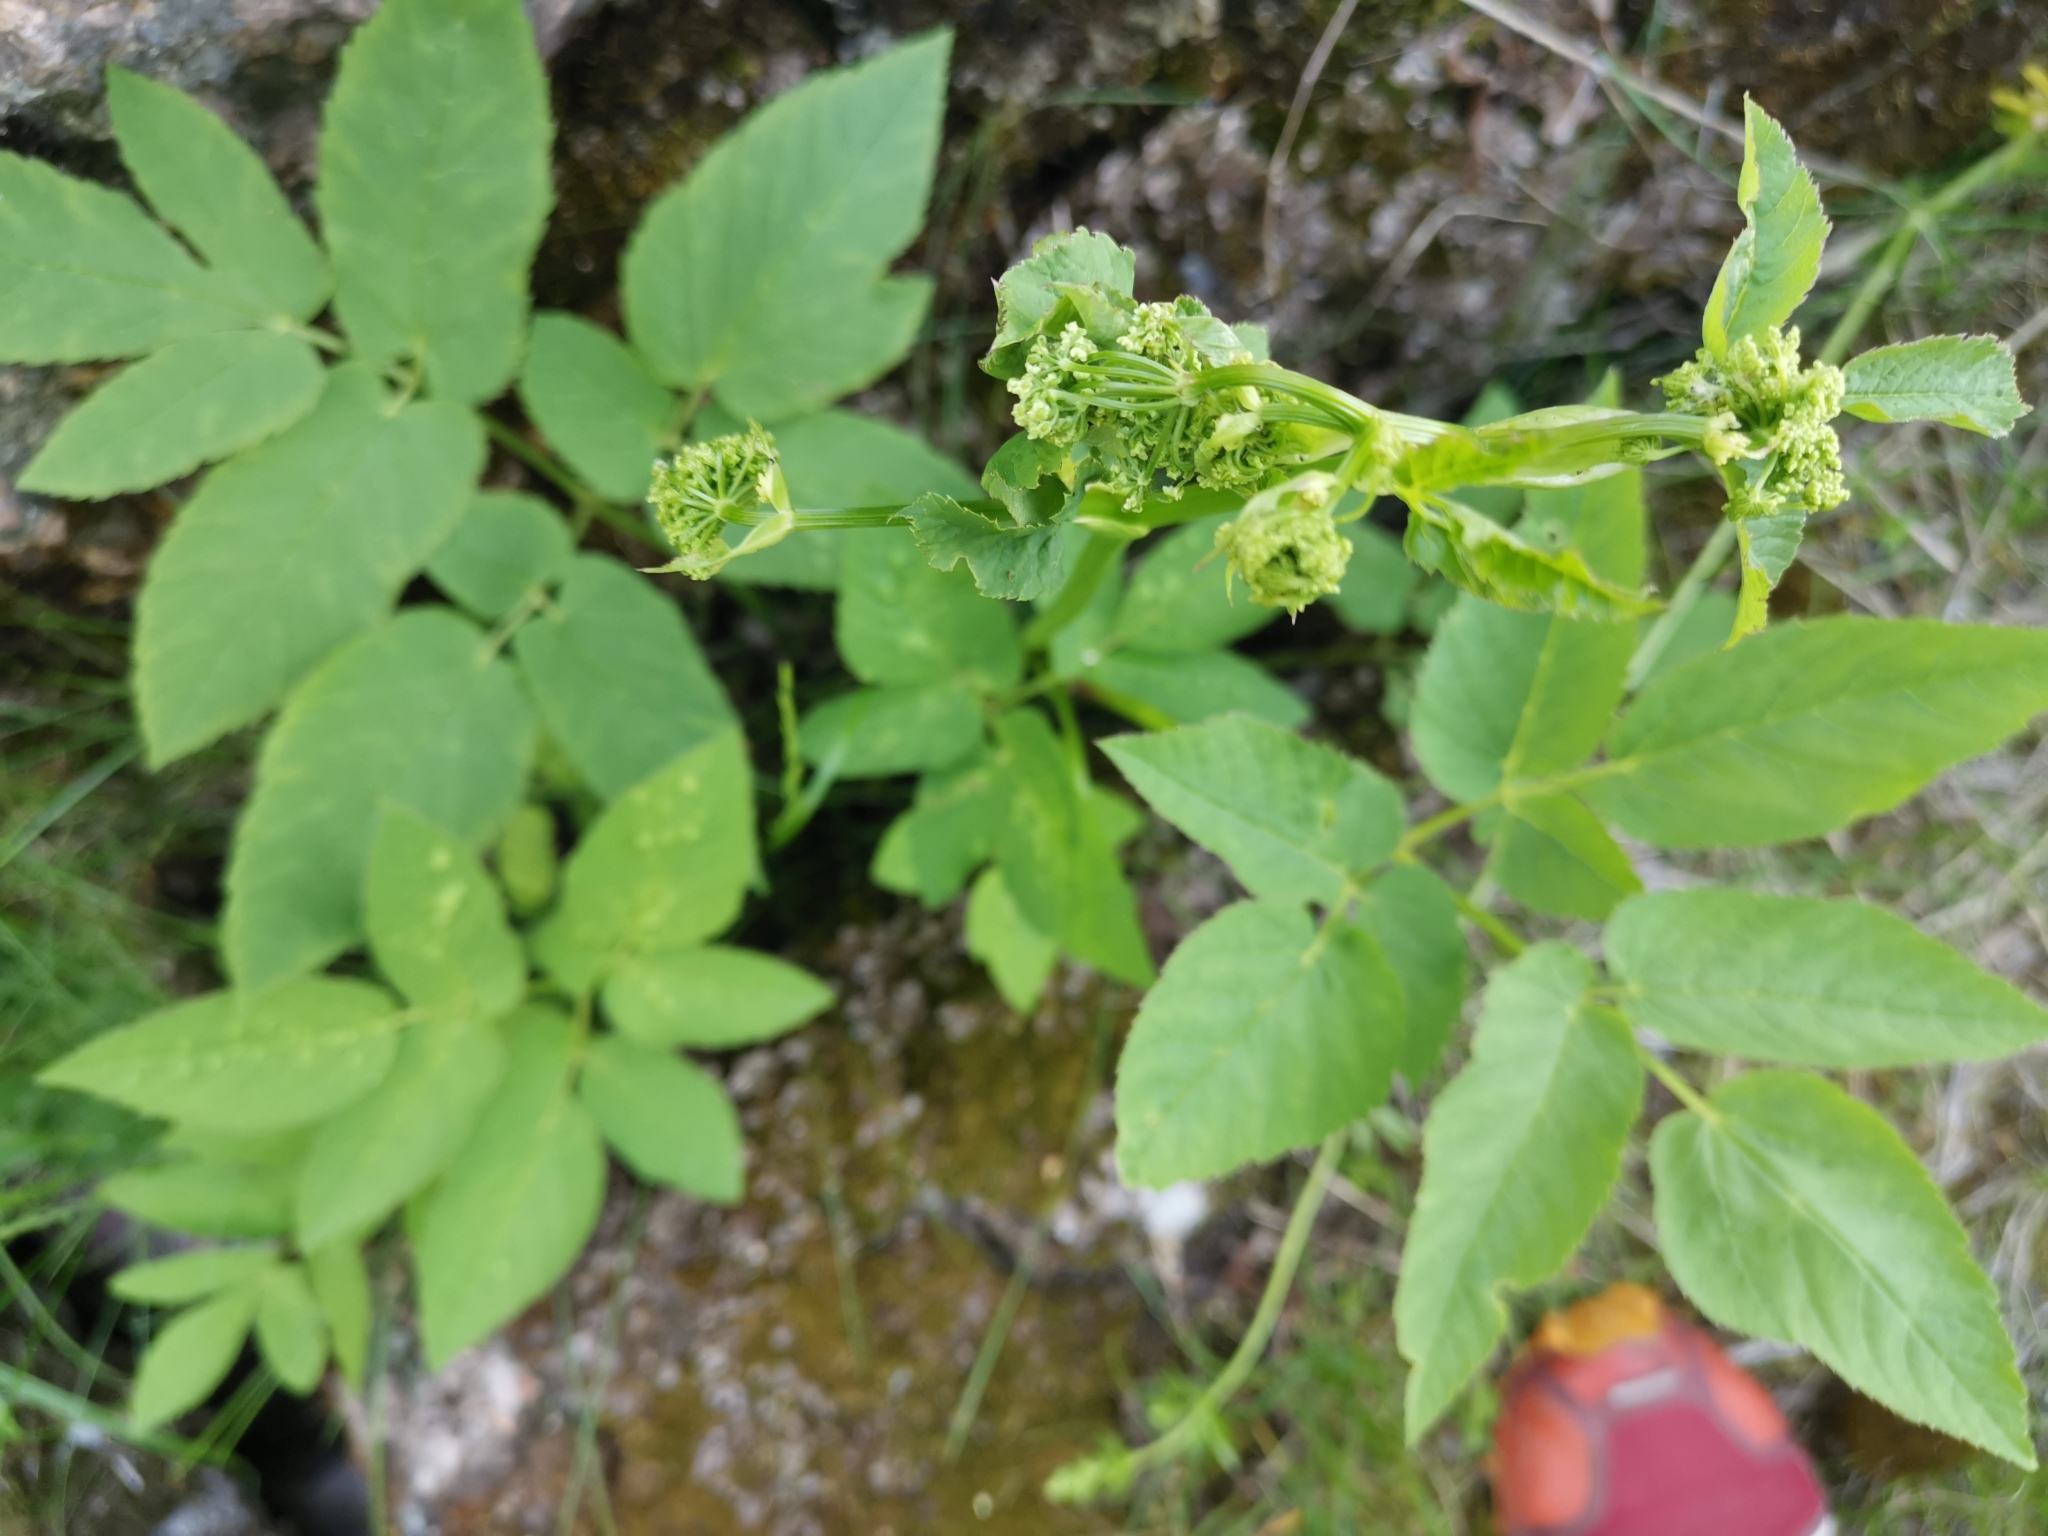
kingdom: Plantae
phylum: Tracheophyta
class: Magnoliopsida
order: Apiales
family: Apiaceae
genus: Aegopodium
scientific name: Aegopodium podagraria
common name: Ground-elder
